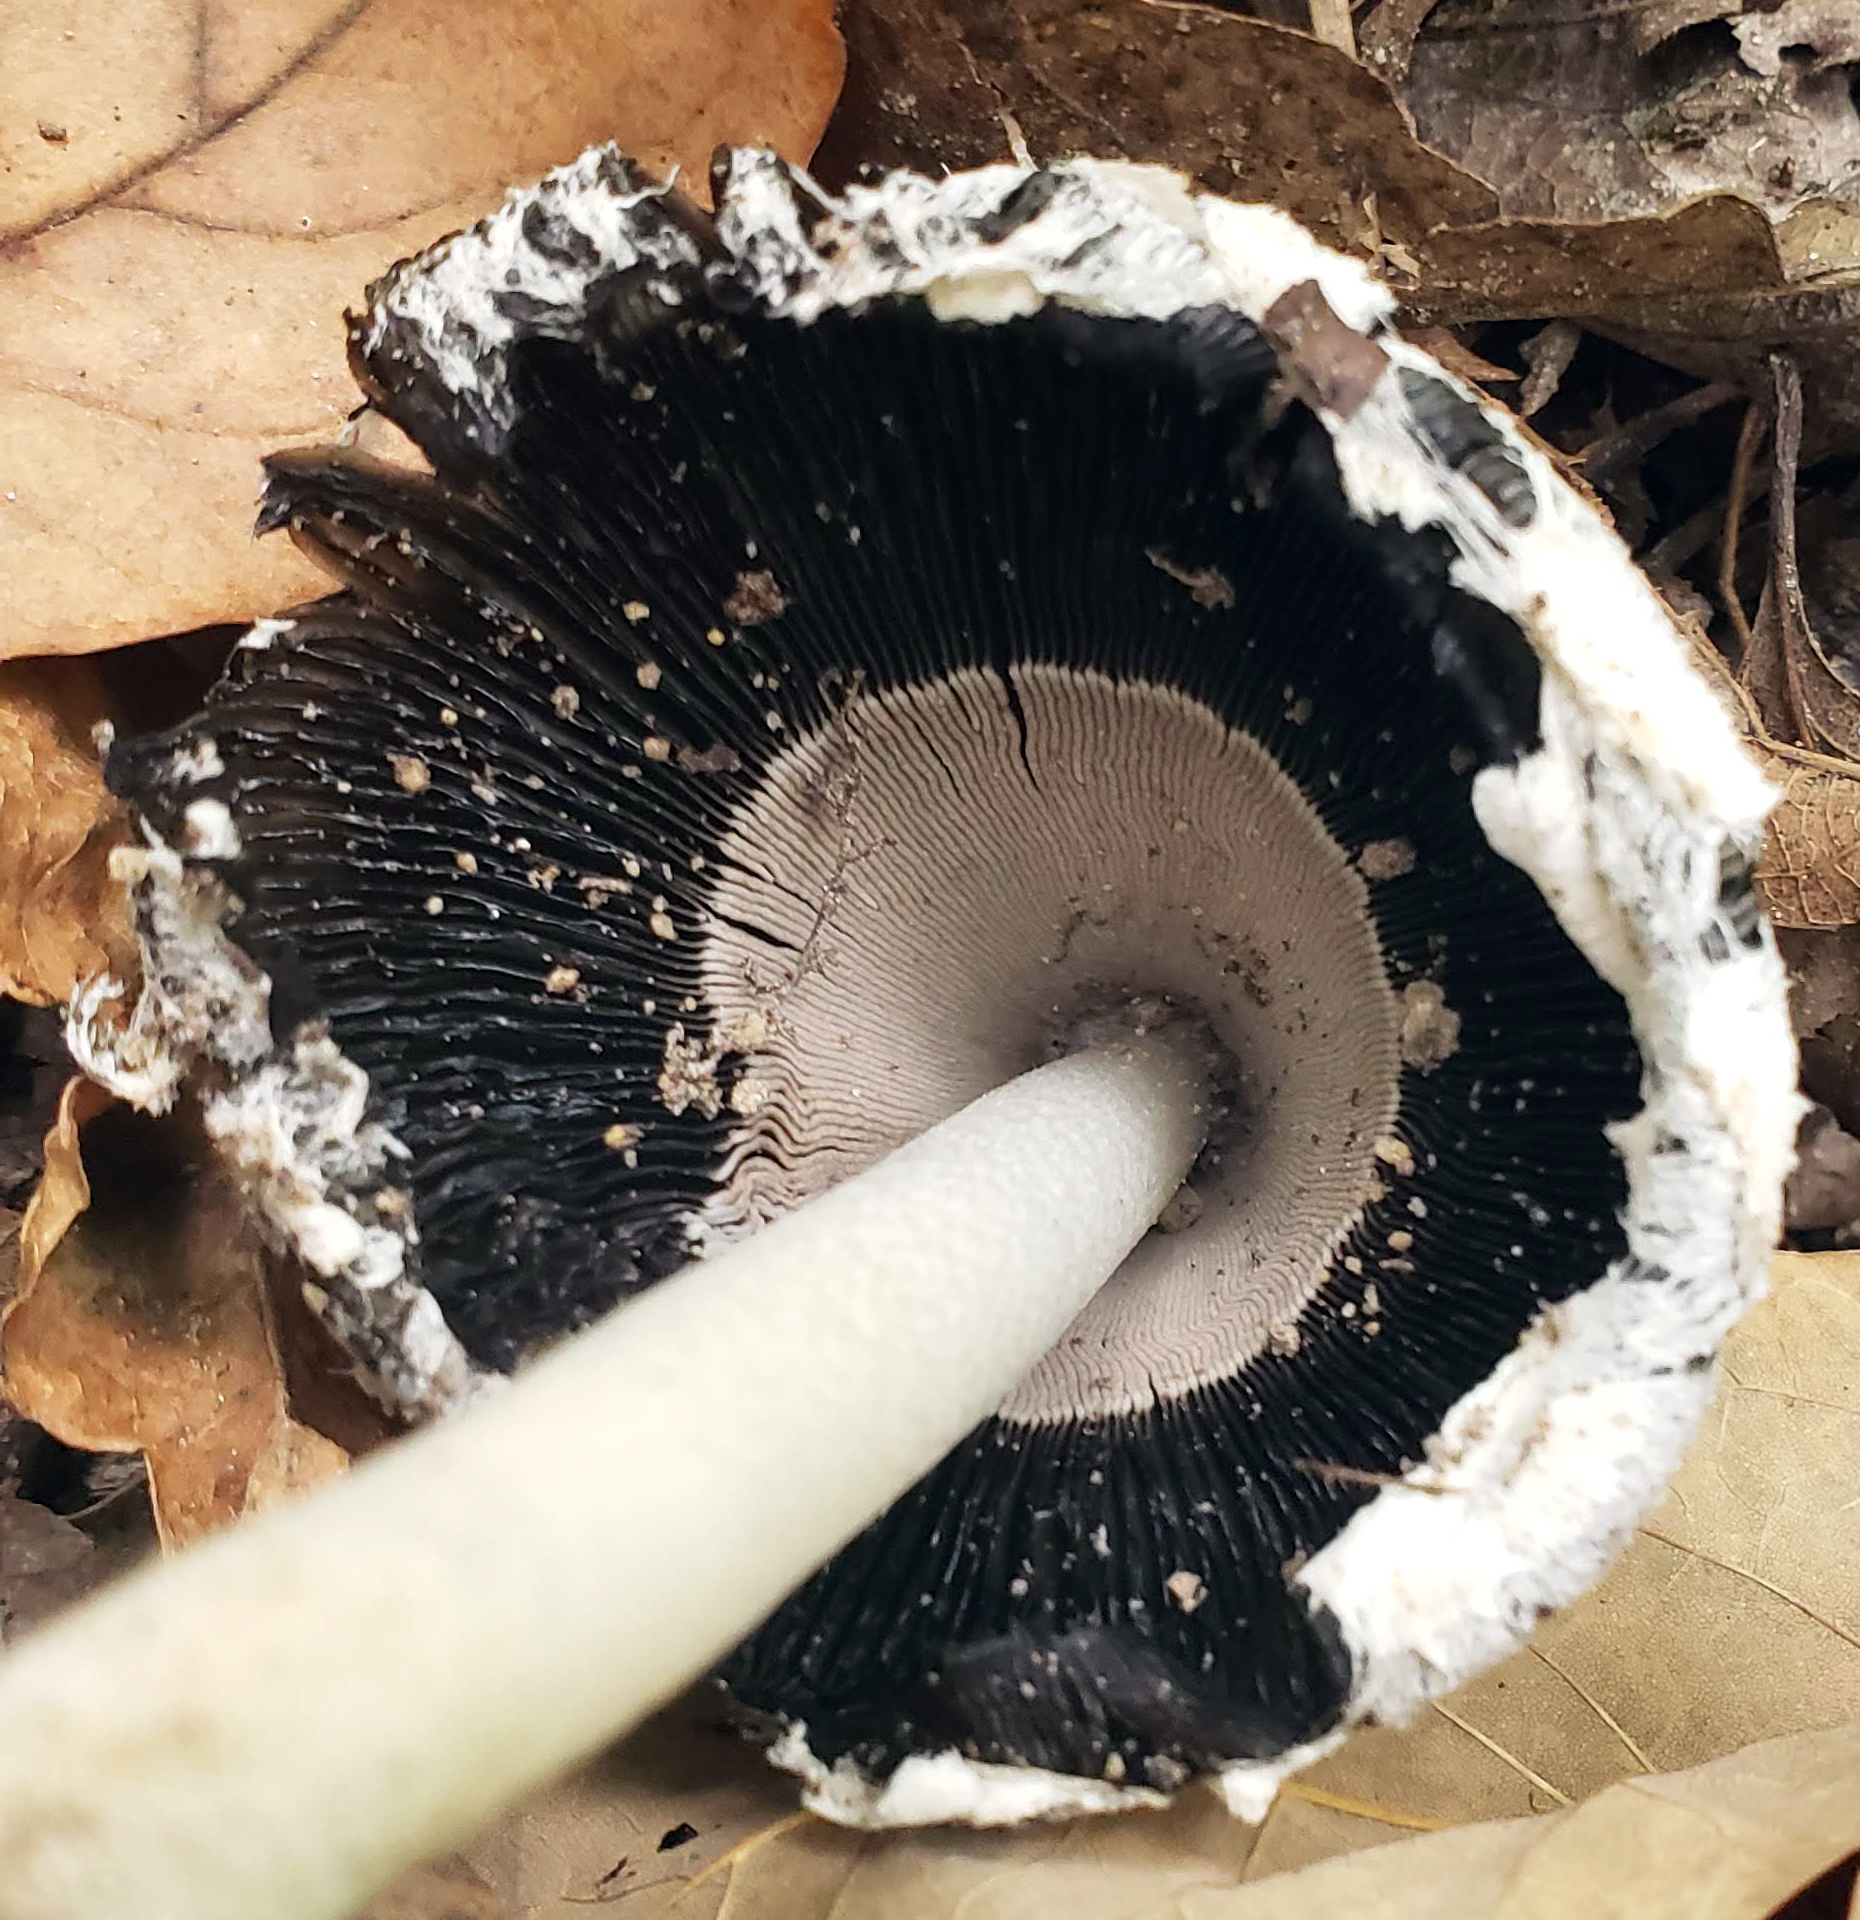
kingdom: Fungi
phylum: Basidiomycota
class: Agaricomycetes
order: Agaricales
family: Agaricaceae
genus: Coprinus
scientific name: Coprinus comatus
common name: Lawyer's wig
